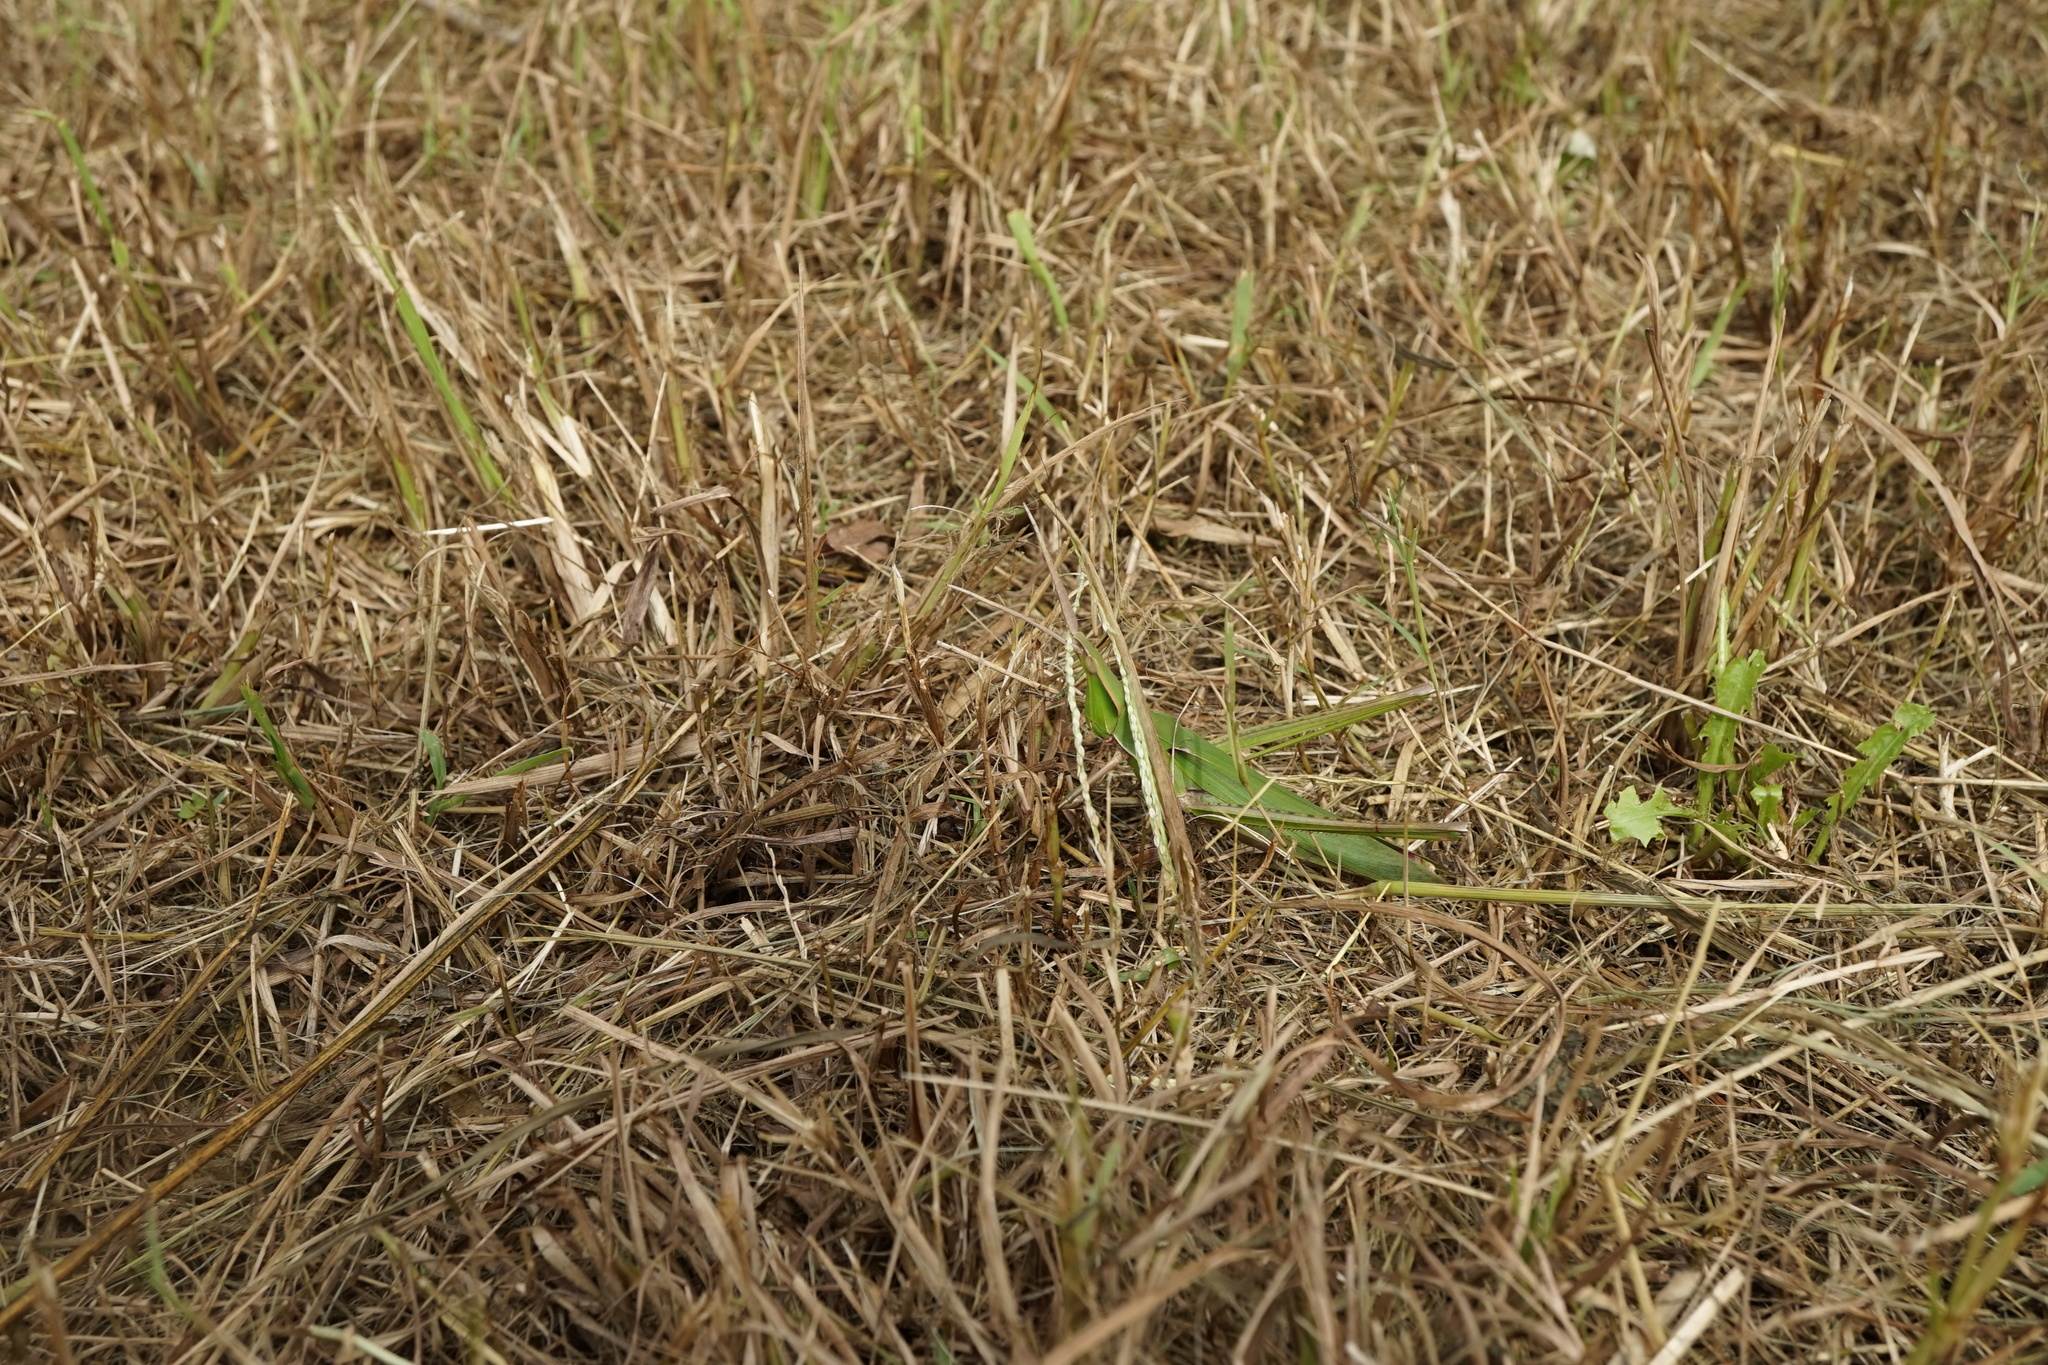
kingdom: Animalia
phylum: Arthropoda
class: Insecta
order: Orthoptera
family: Acrididae
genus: Acrida
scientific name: Acrida cinerea
